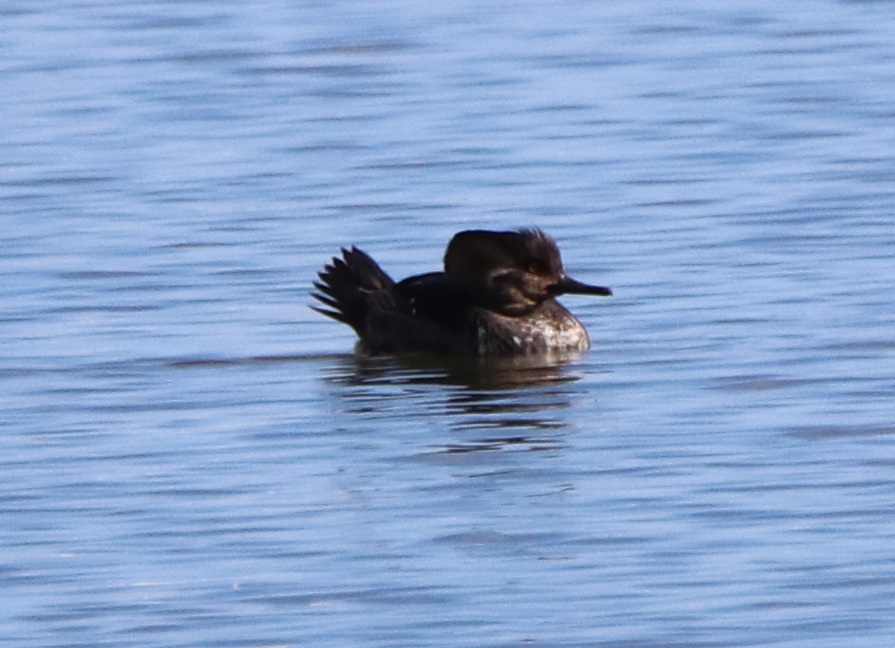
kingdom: Animalia
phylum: Chordata
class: Aves
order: Anseriformes
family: Anatidae
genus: Lophodytes
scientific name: Lophodytes cucullatus
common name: Hooded merganser
